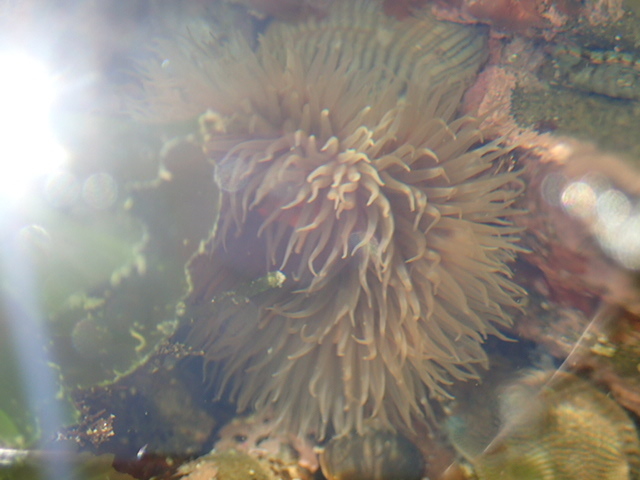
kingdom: Animalia
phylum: Cnidaria
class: Anthozoa
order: Actiniaria
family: Diadumenidae
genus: Diadumene
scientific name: Diadumene neozelanica
